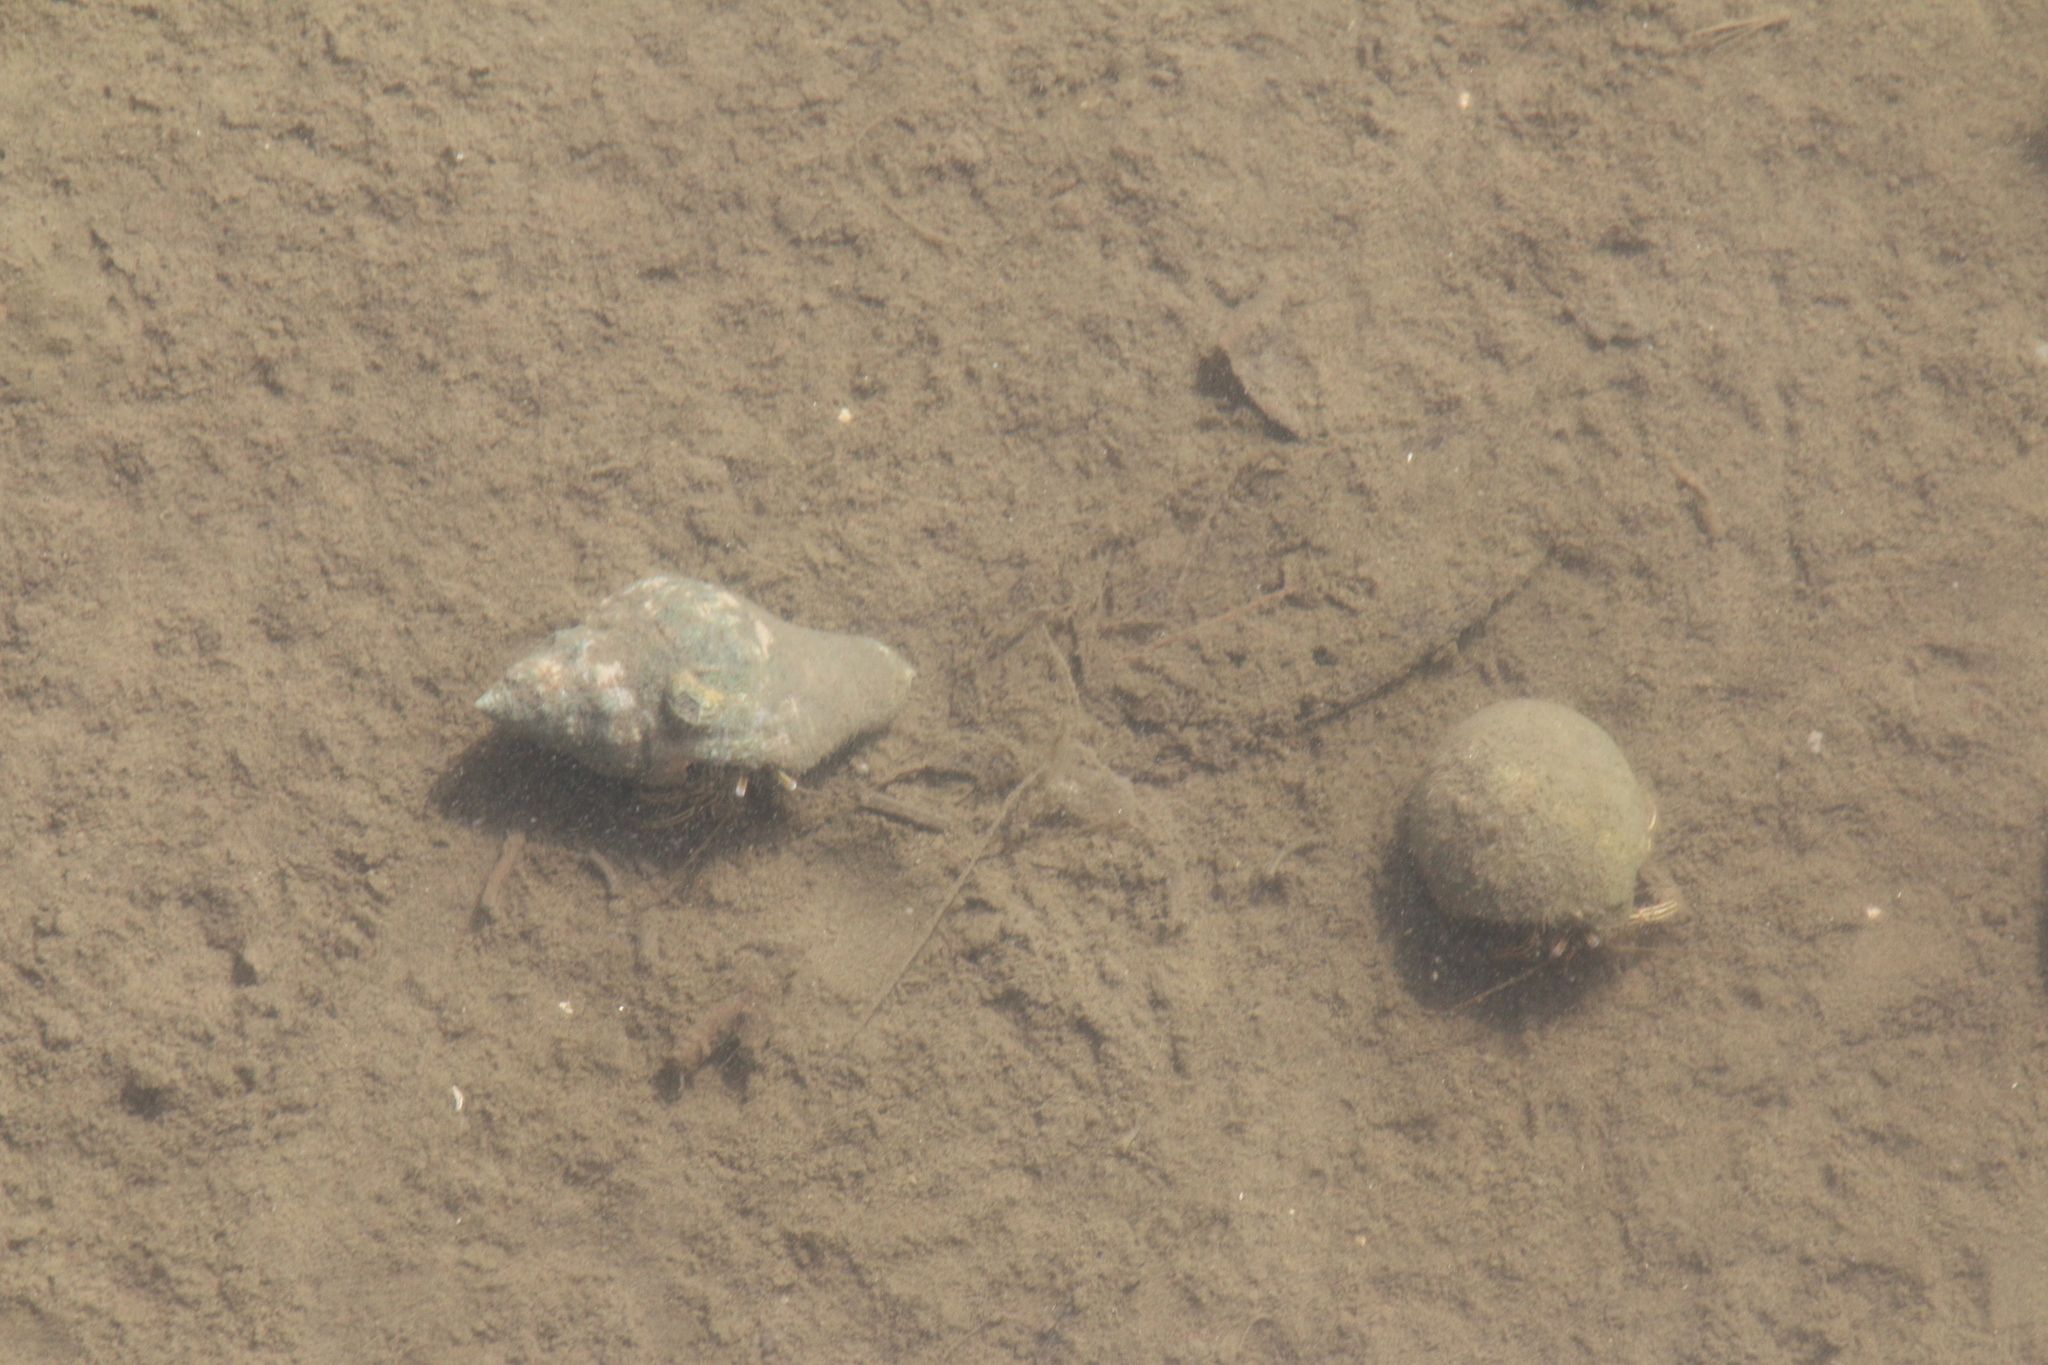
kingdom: Animalia
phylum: Arthropoda
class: Malacostraca
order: Decapoda
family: Diogenidae
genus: Clibanarius
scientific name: Clibanarius vittatus
